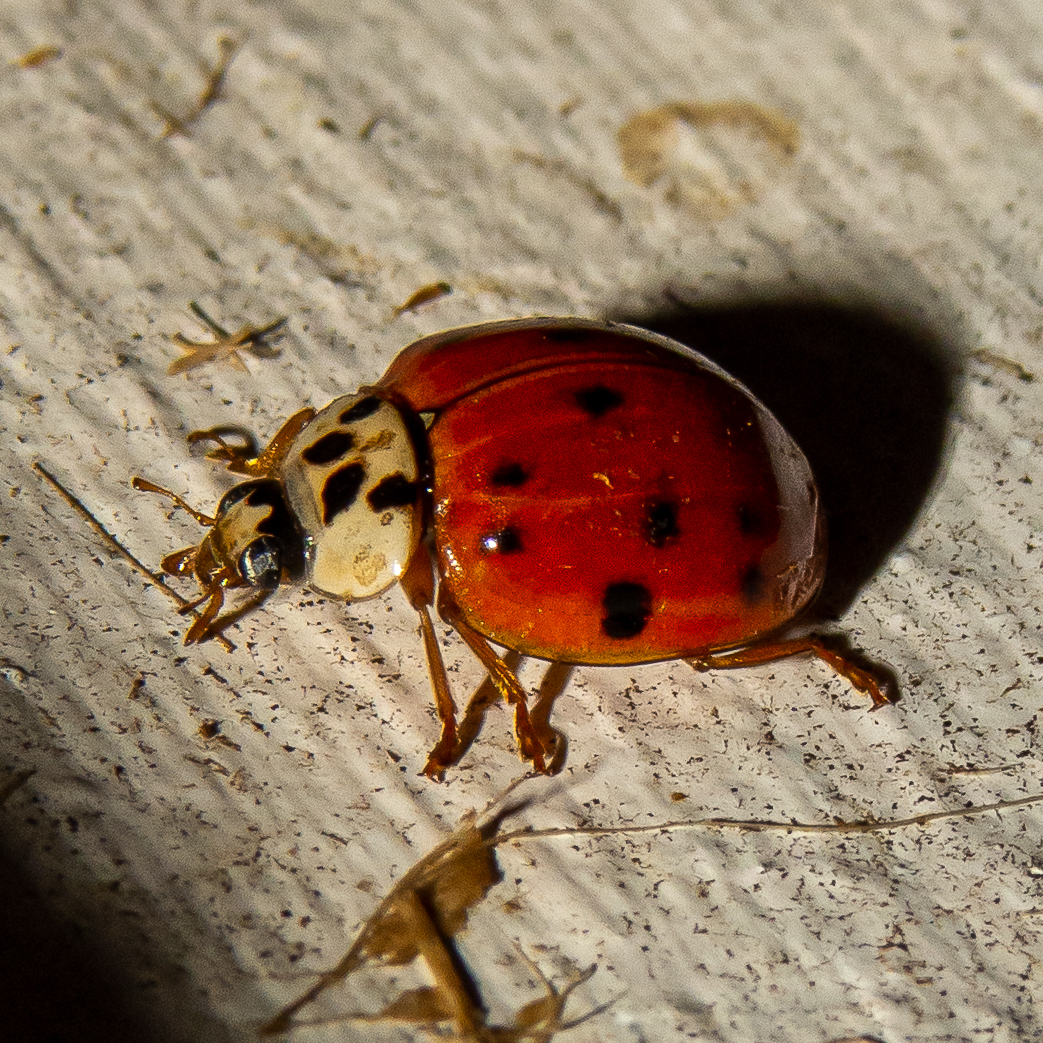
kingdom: Animalia
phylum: Arthropoda
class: Insecta
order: Coleoptera
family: Coccinellidae
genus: Harmonia
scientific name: Harmonia axyridis
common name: Harlequin ladybird
